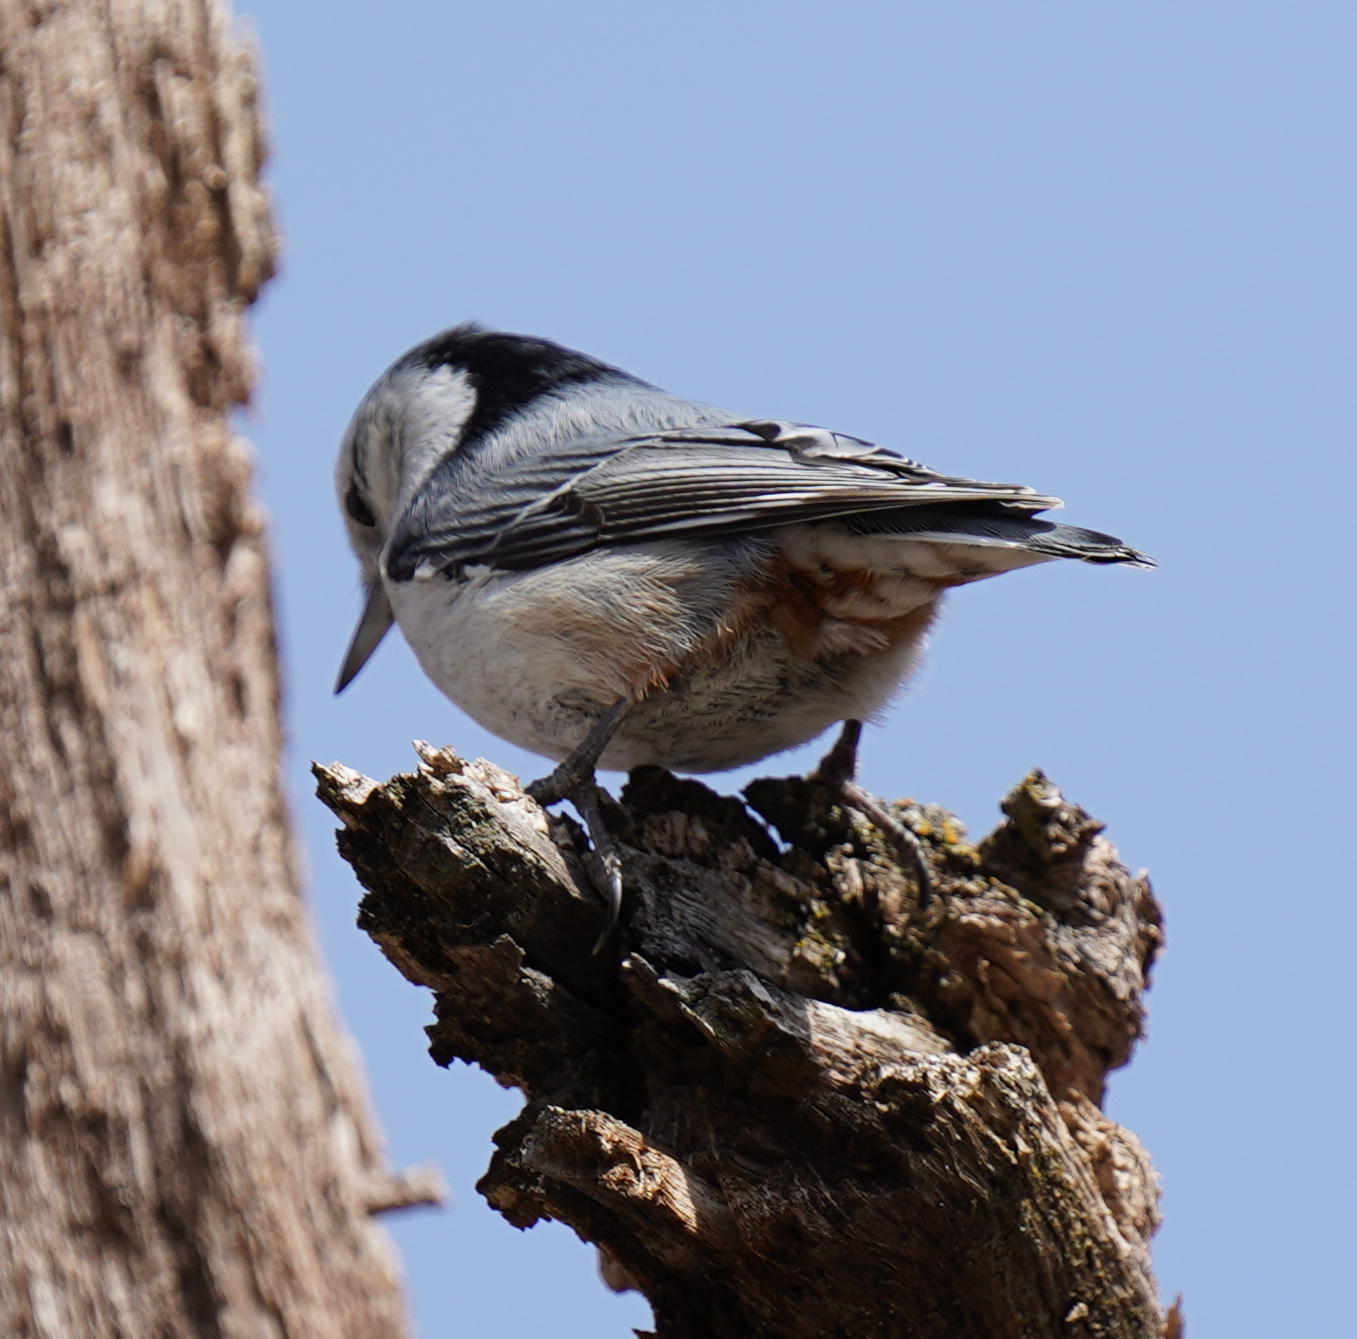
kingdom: Animalia
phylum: Chordata
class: Aves
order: Passeriformes
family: Sittidae
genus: Sitta
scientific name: Sitta carolinensis
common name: White-breasted nuthatch
